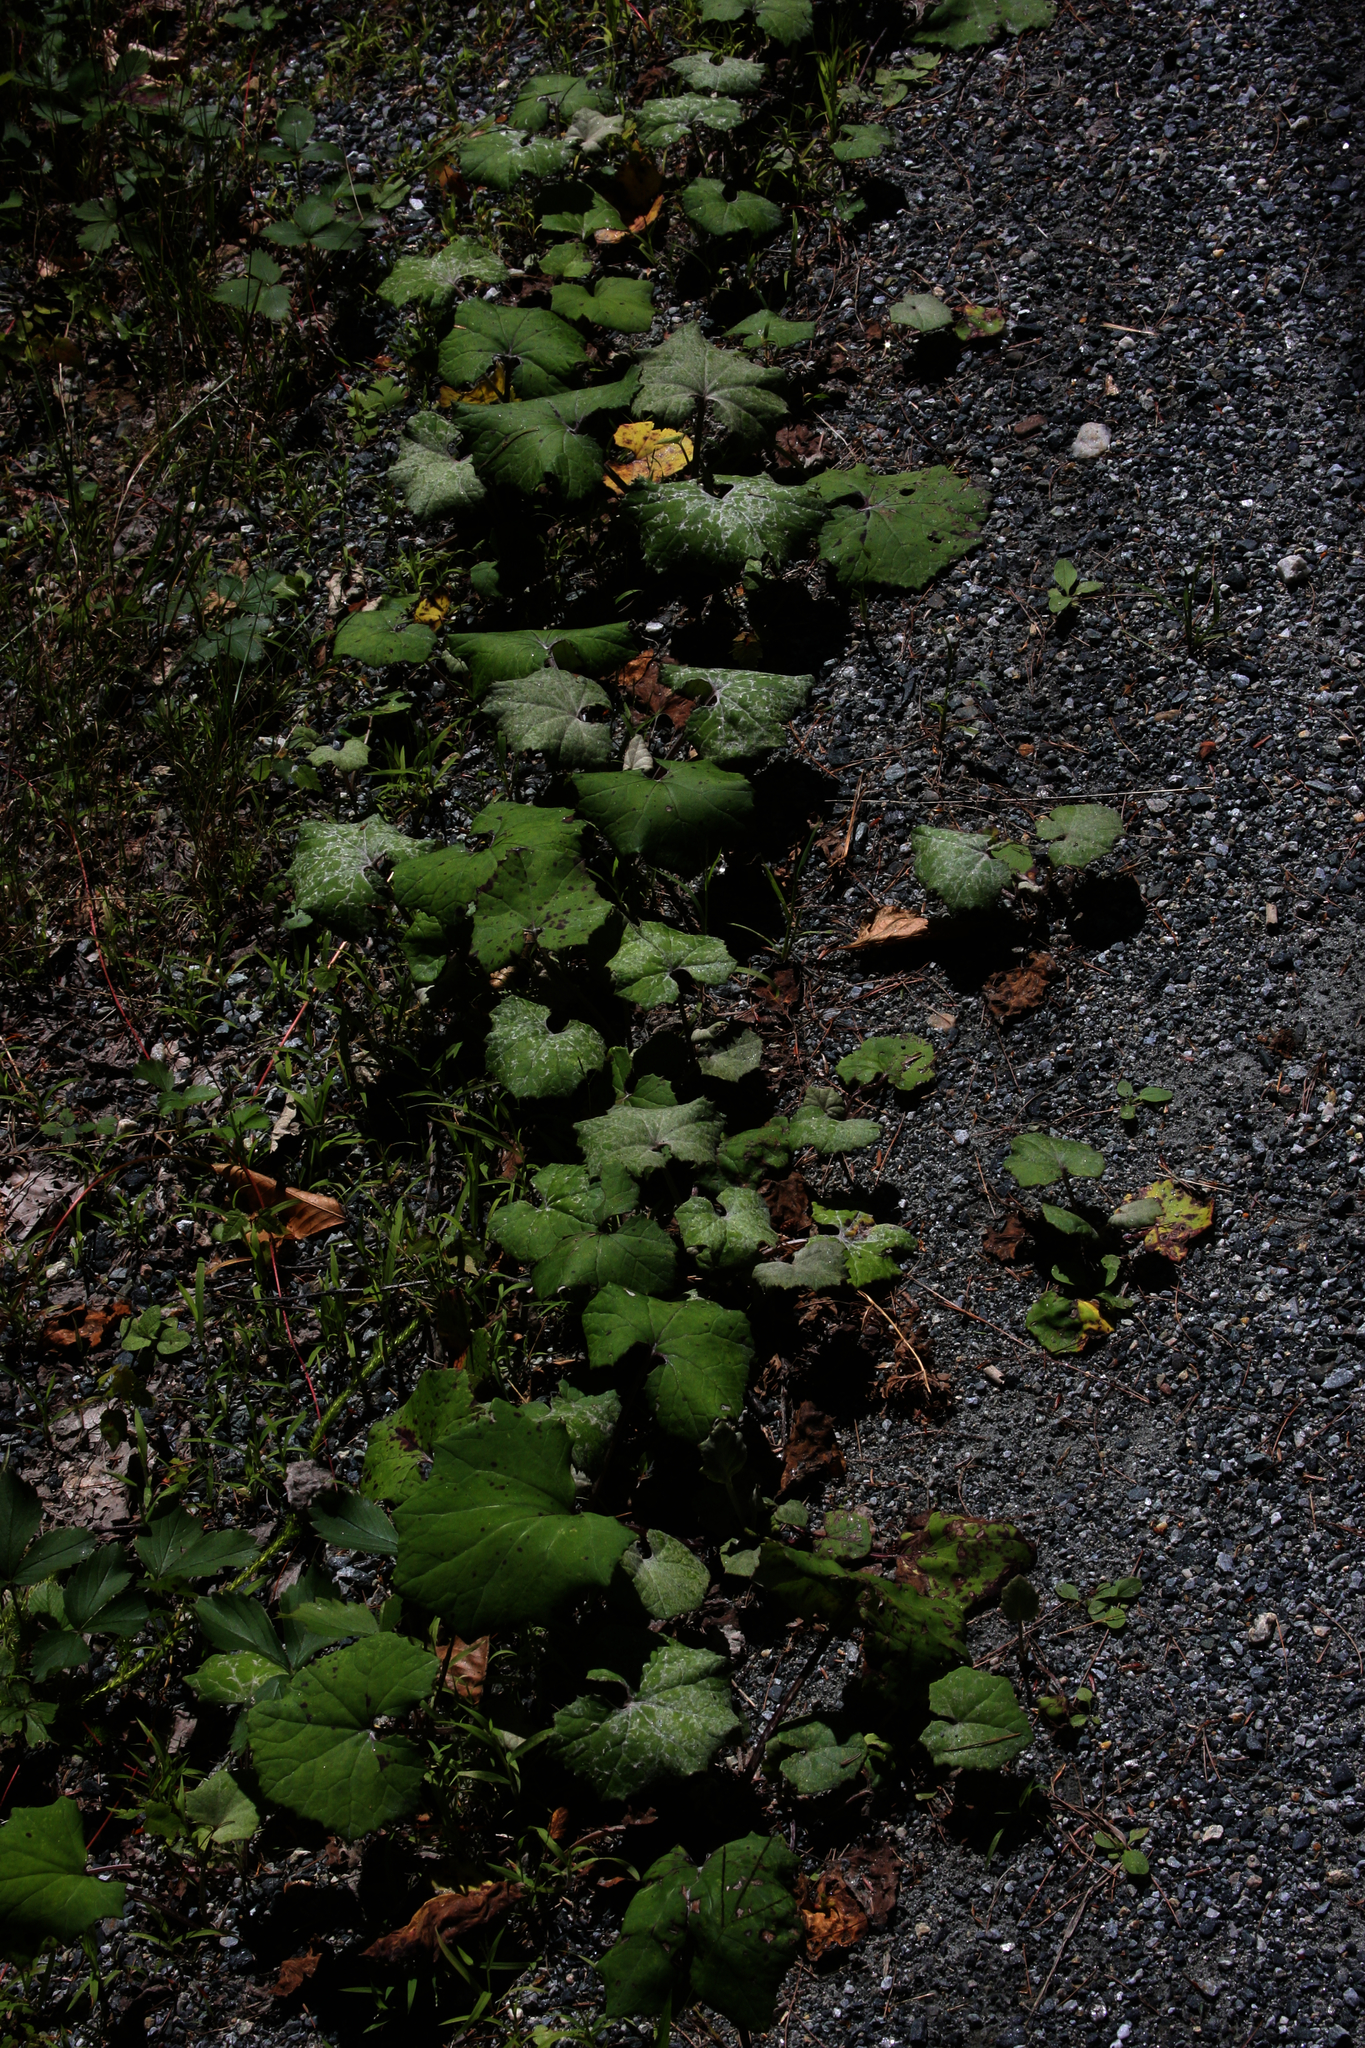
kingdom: Plantae
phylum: Tracheophyta
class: Magnoliopsida
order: Asterales
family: Asteraceae
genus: Tussilago
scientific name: Tussilago farfara
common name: Coltsfoot
